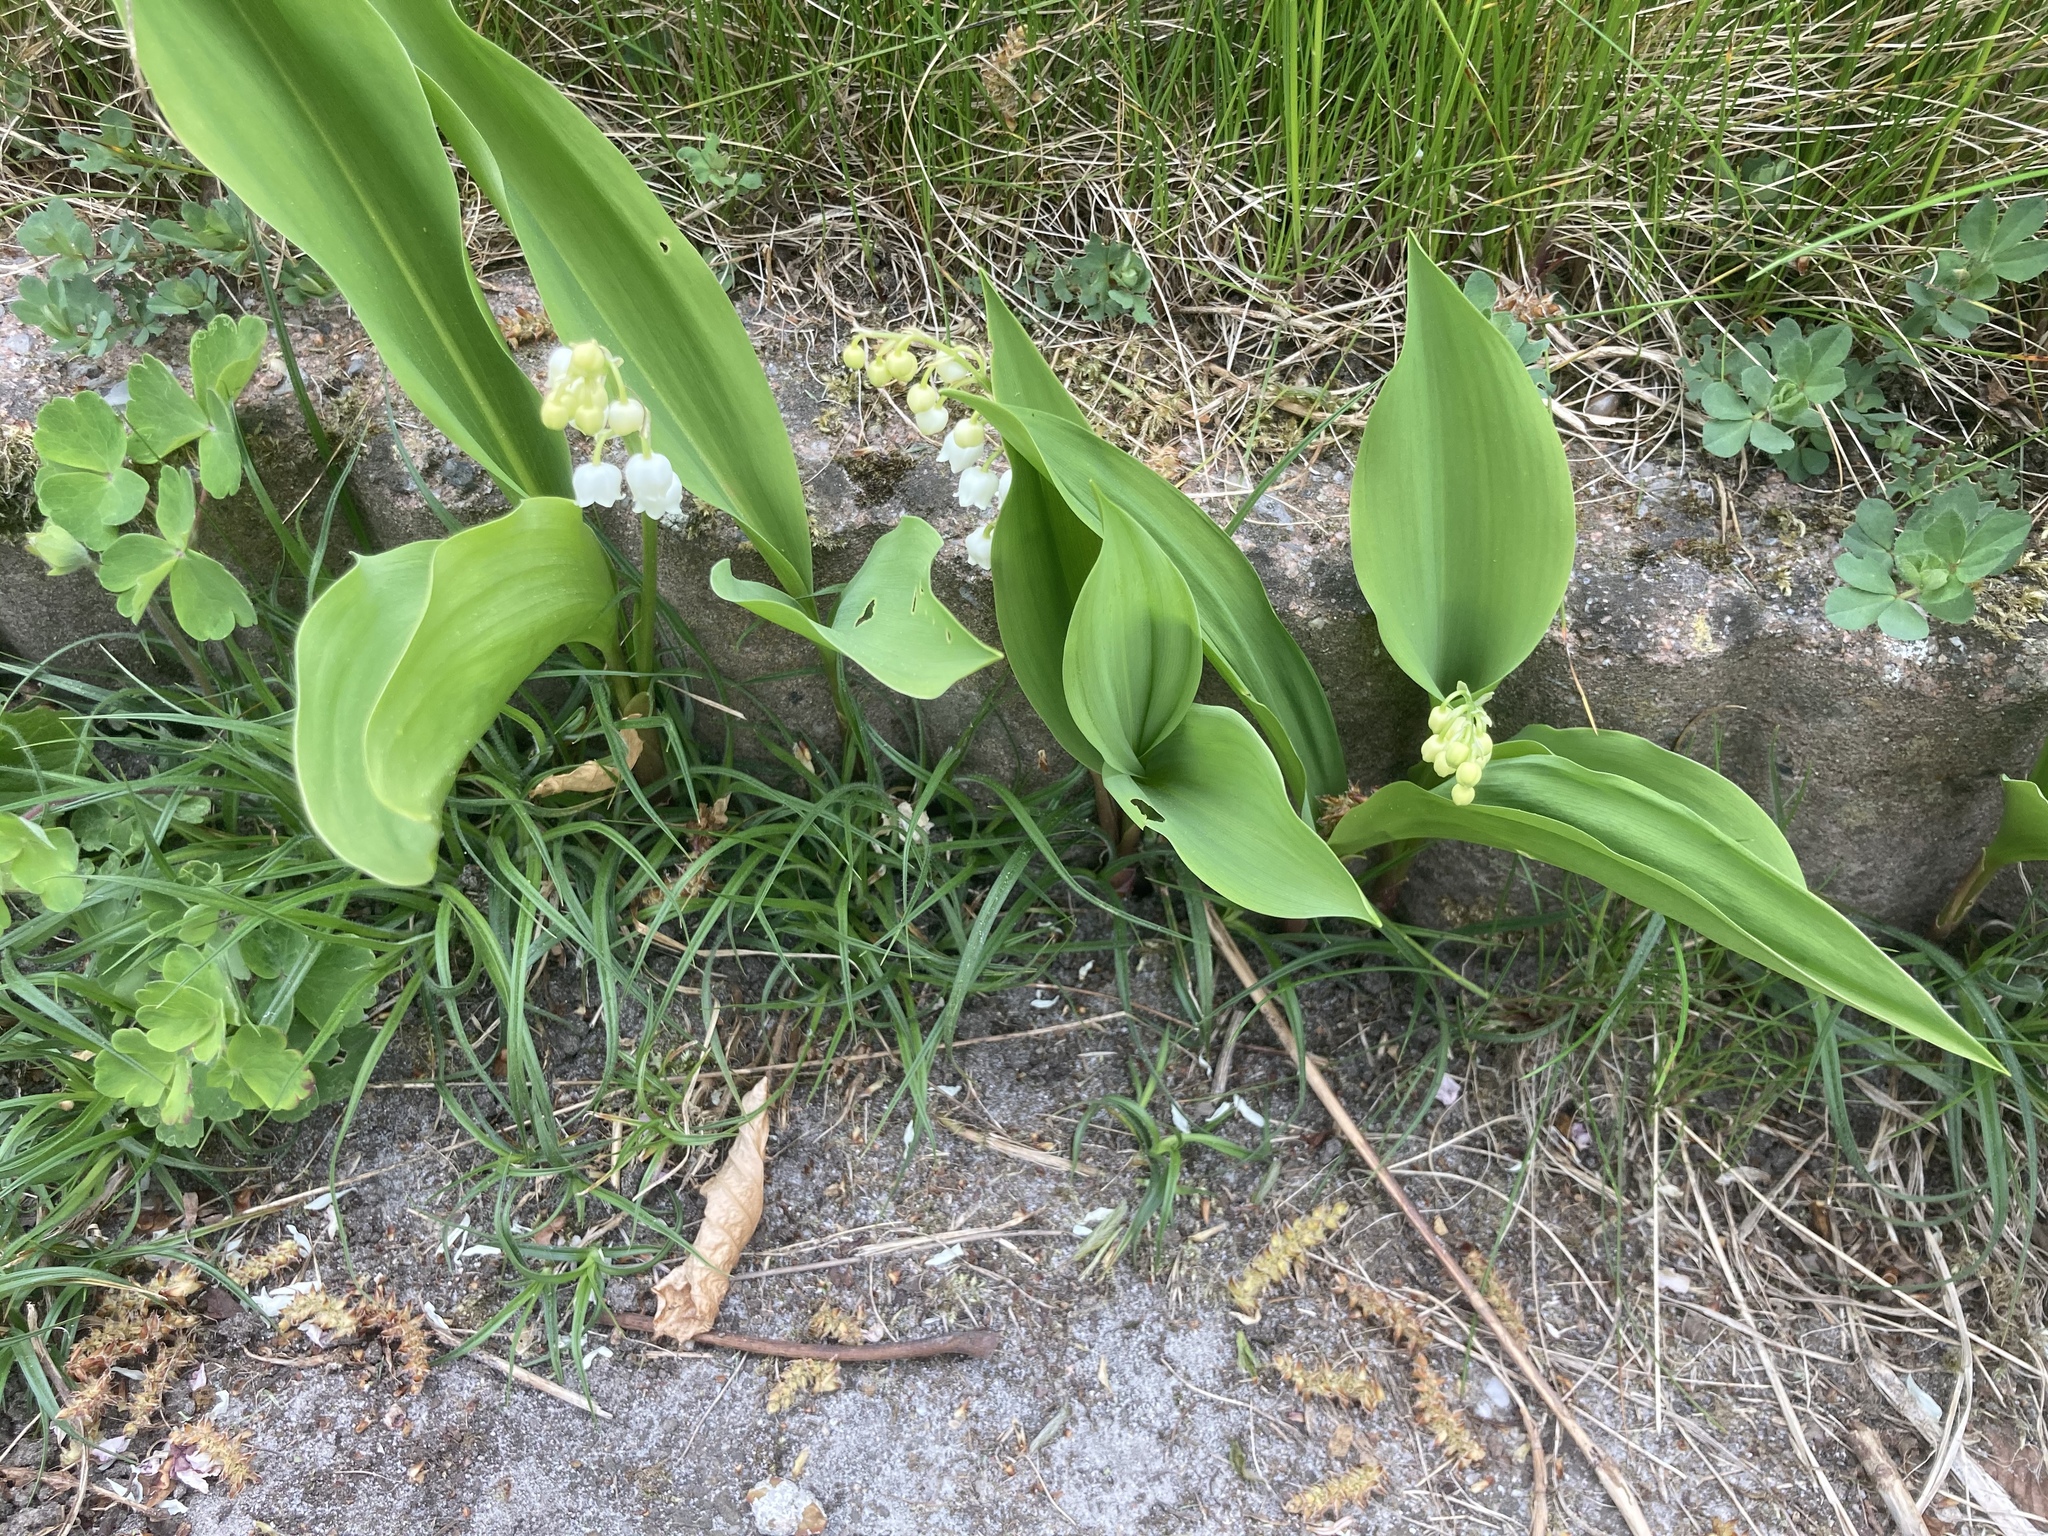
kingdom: Plantae
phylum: Tracheophyta
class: Liliopsida
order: Asparagales
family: Asparagaceae
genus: Convallaria
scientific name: Convallaria majalis
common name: Lily-of-the-valley
